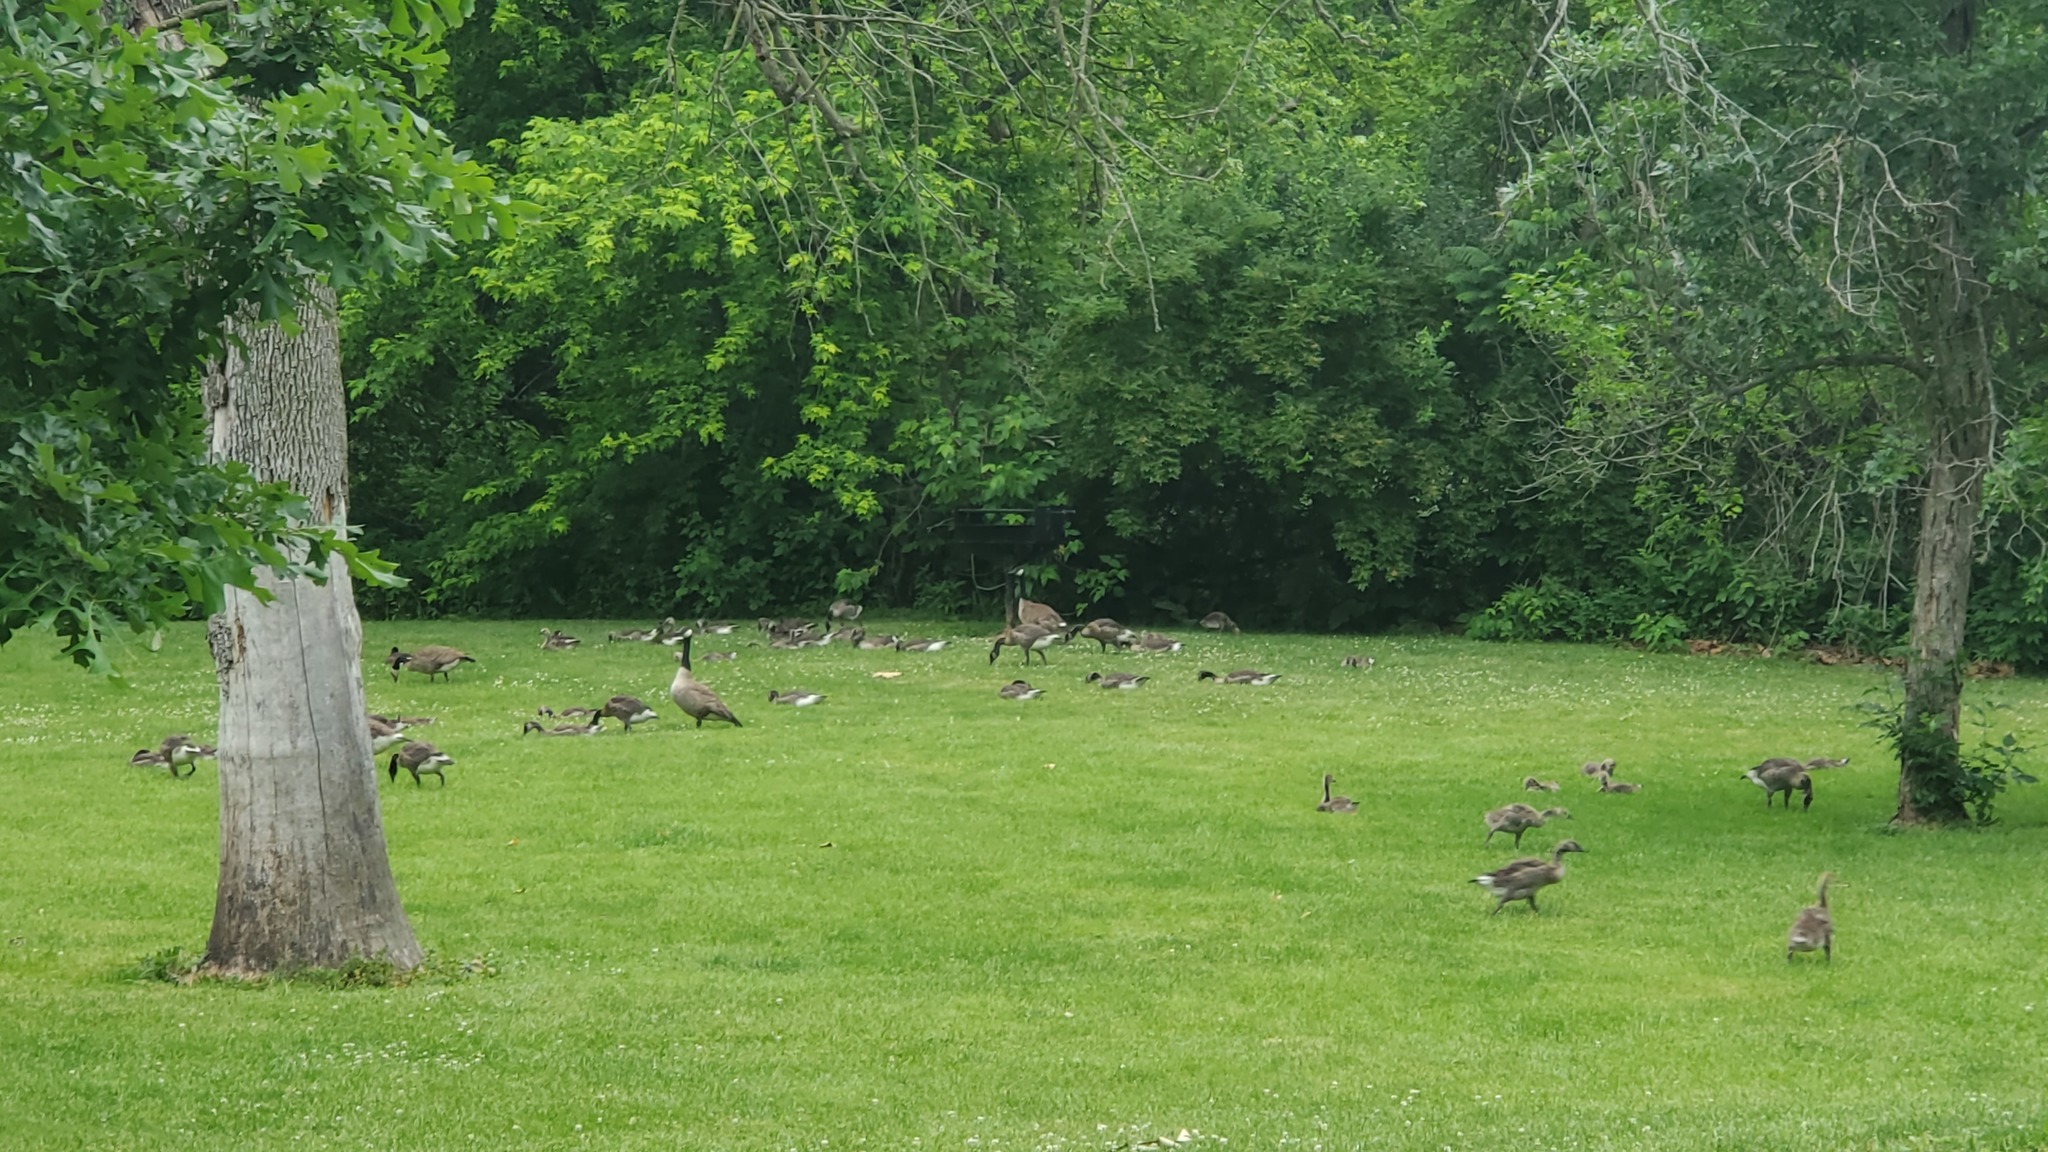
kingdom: Animalia
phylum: Chordata
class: Aves
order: Anseriformes
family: Anatidae
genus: Branta
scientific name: Branta canadensis
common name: Canada goose
